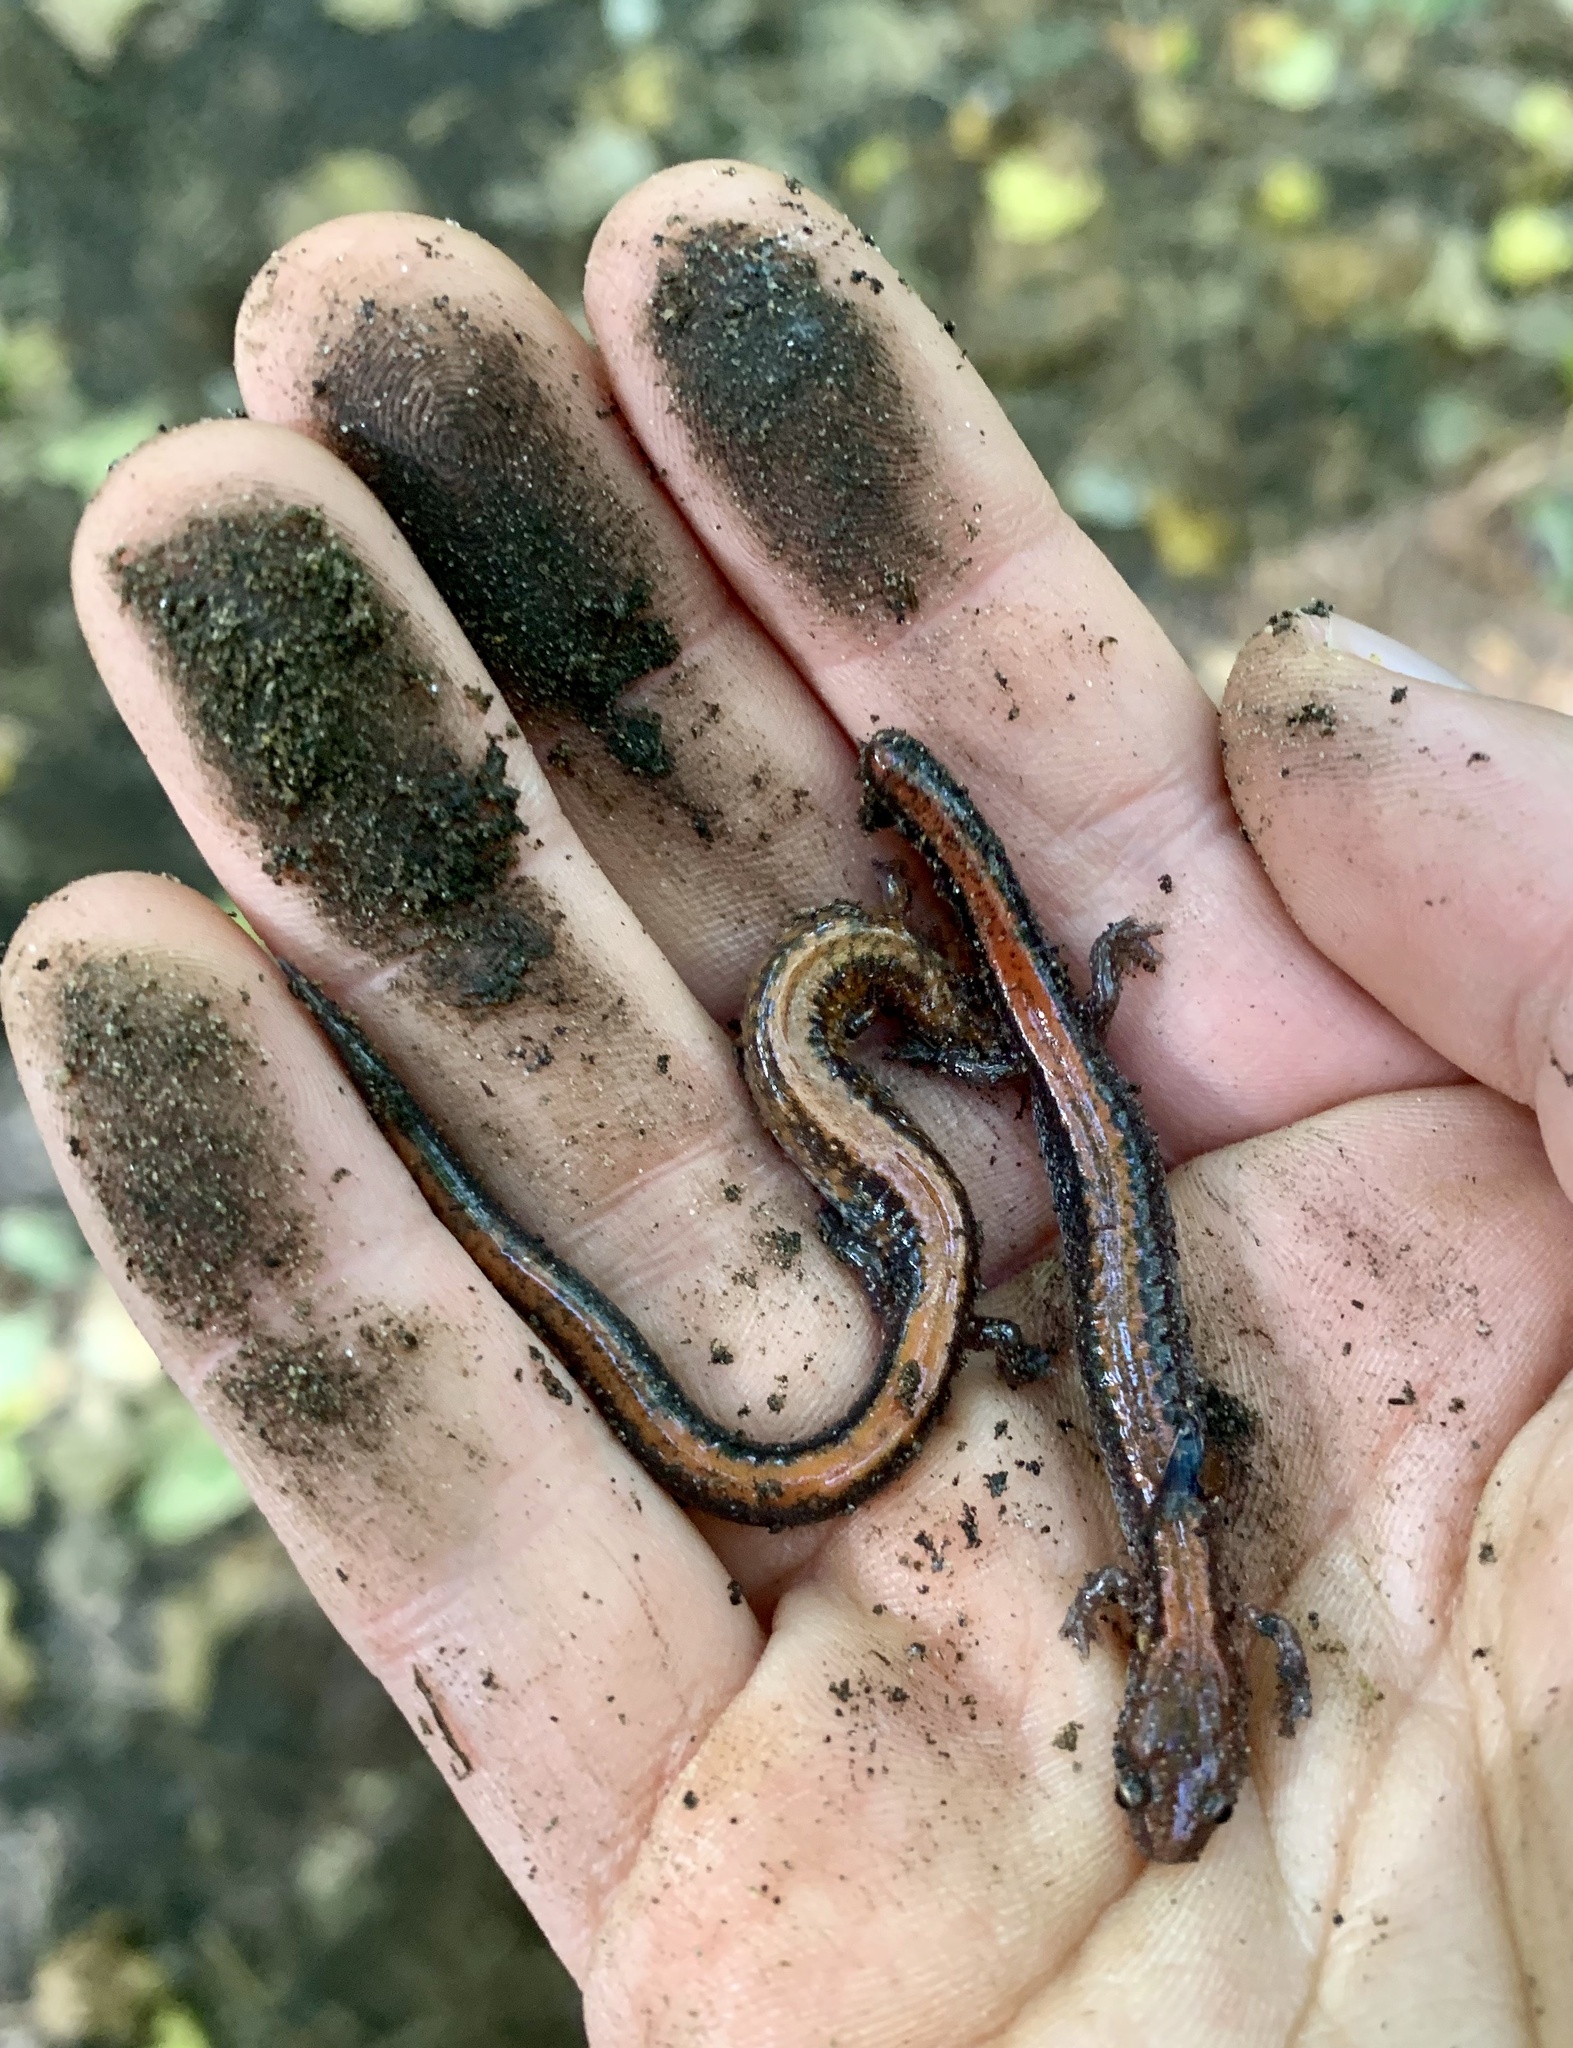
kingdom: Animalia
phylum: Chordata
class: Amphibia
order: Caudata
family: Plethodontidae
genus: Plethodon
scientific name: Plethodon cinereus
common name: Redback salamander
